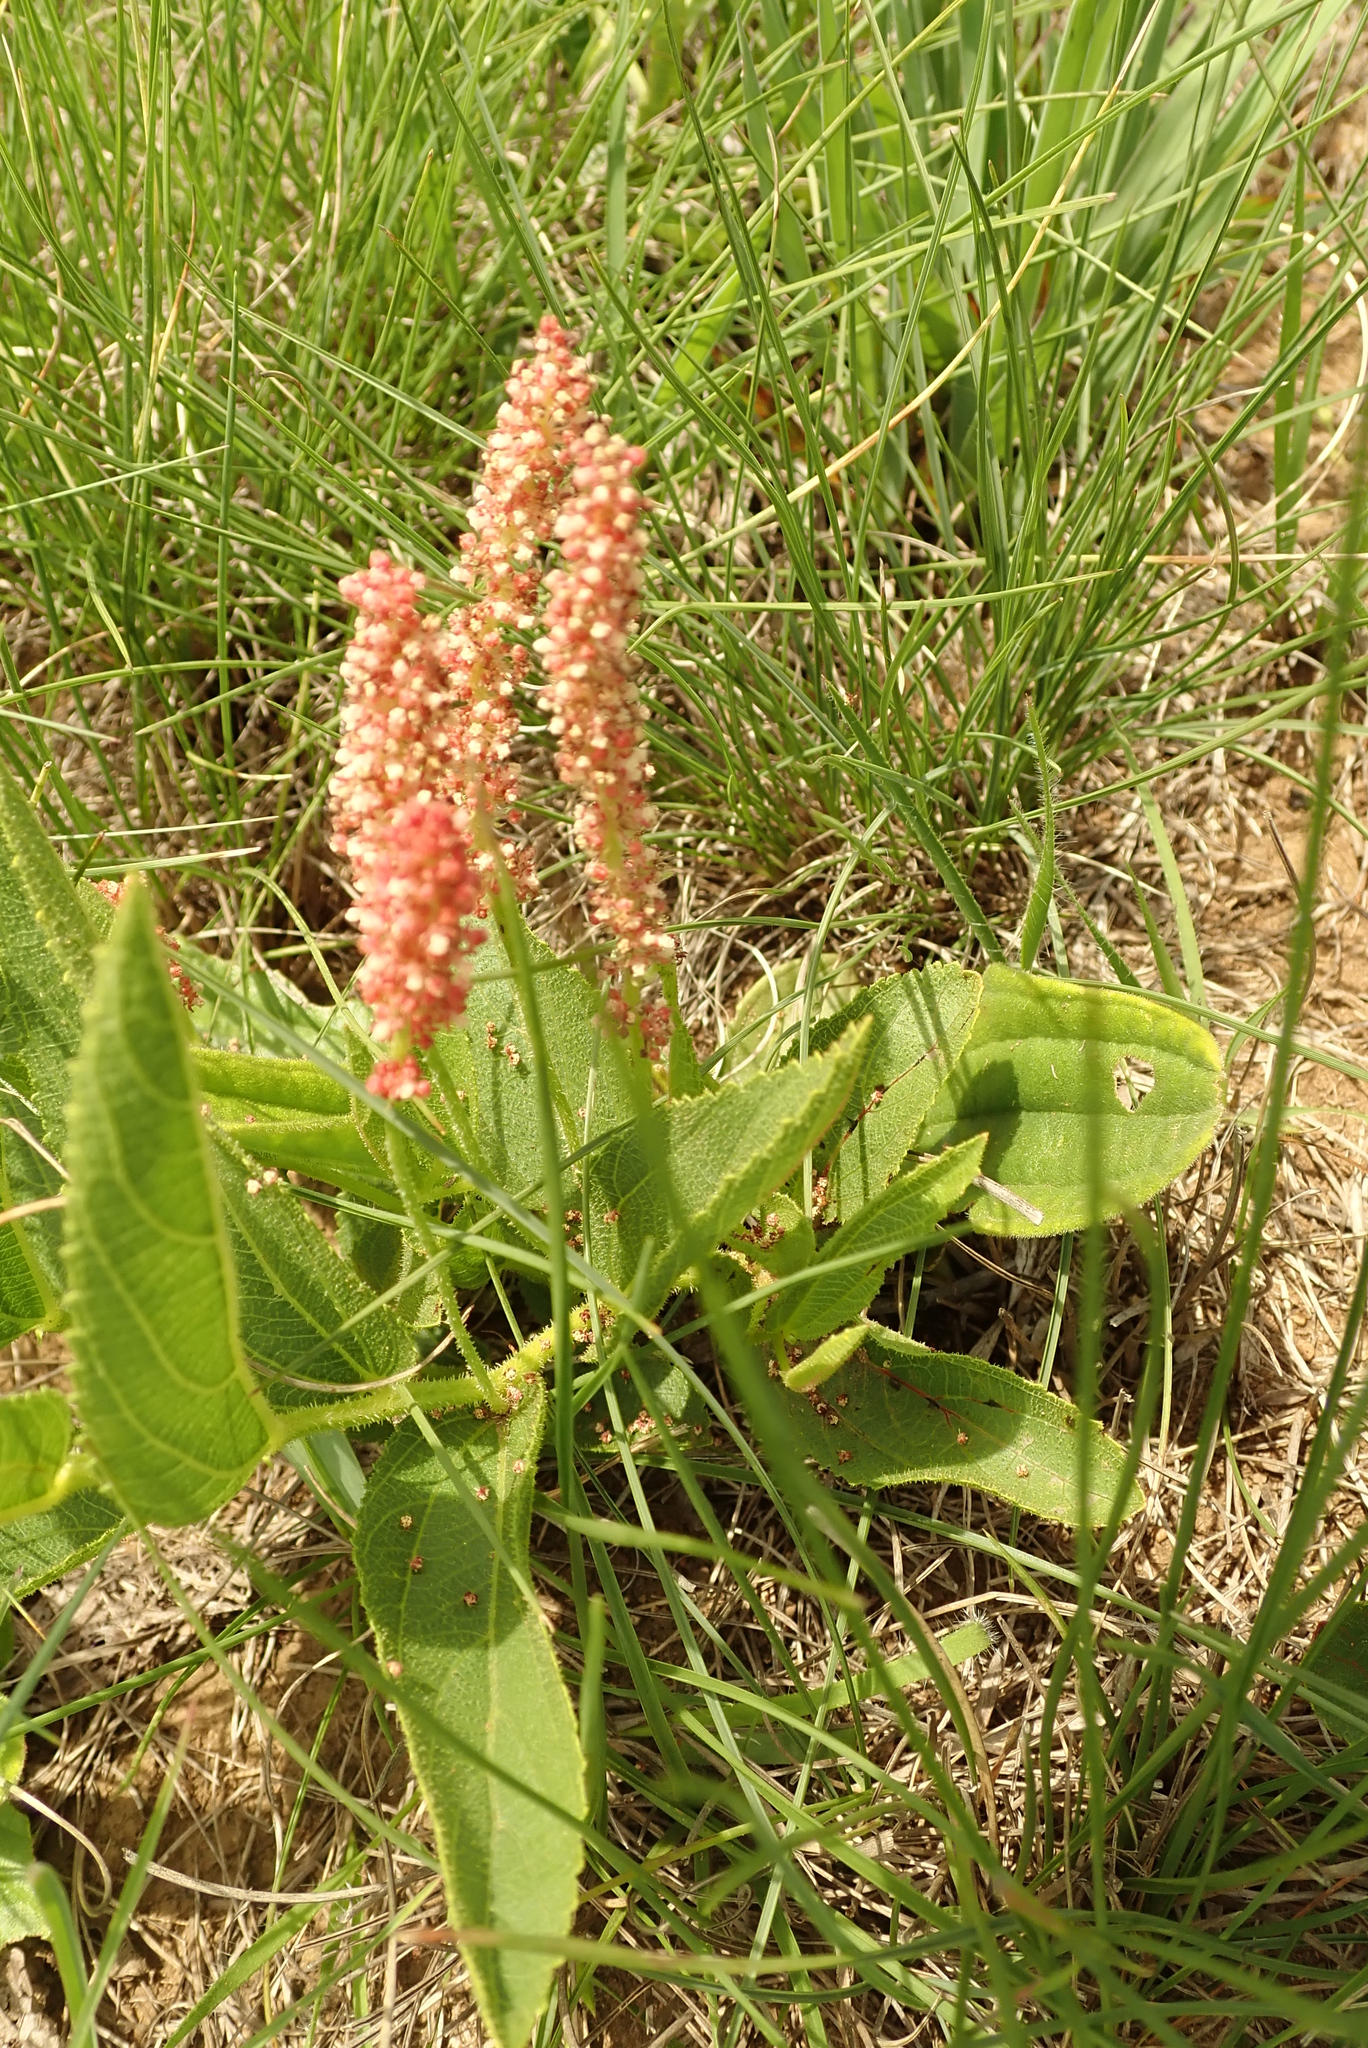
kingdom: Plantae
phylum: Tracheophyta
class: Magnoliopsida
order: Malpighiales
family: Euphorbiaceae
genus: Acalypha
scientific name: Acalypha depressinervia
